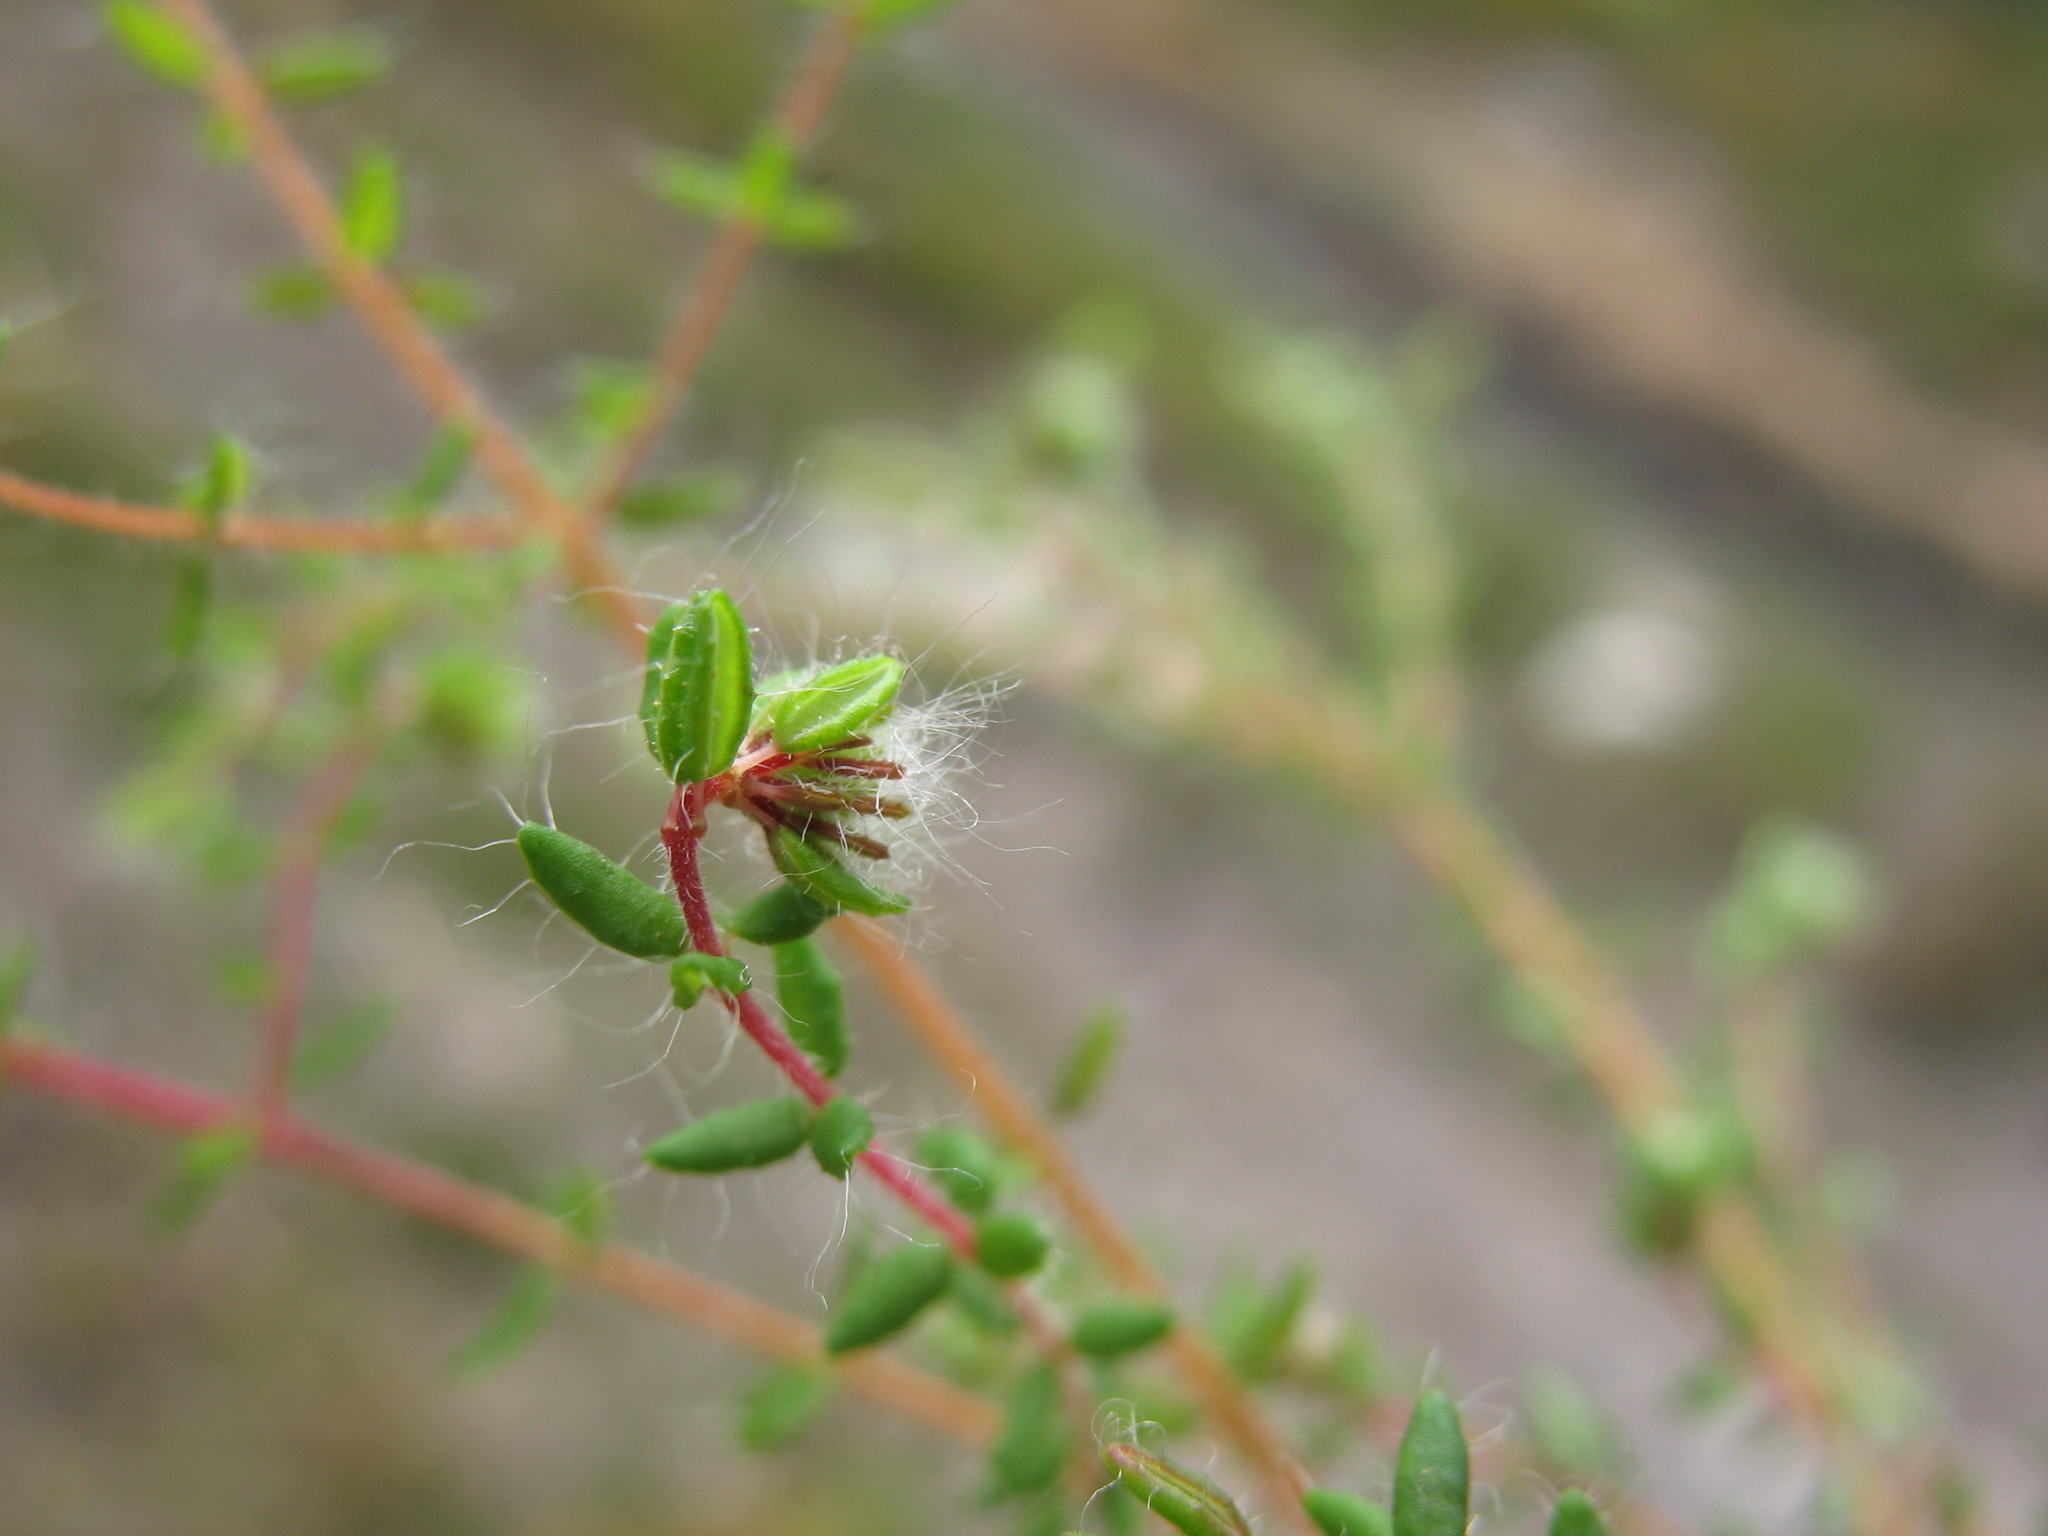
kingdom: Plantae
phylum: Tracheophyta
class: Magnoliopsida
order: Ericales
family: Ericaceae
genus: Erica
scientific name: Erica riparia
